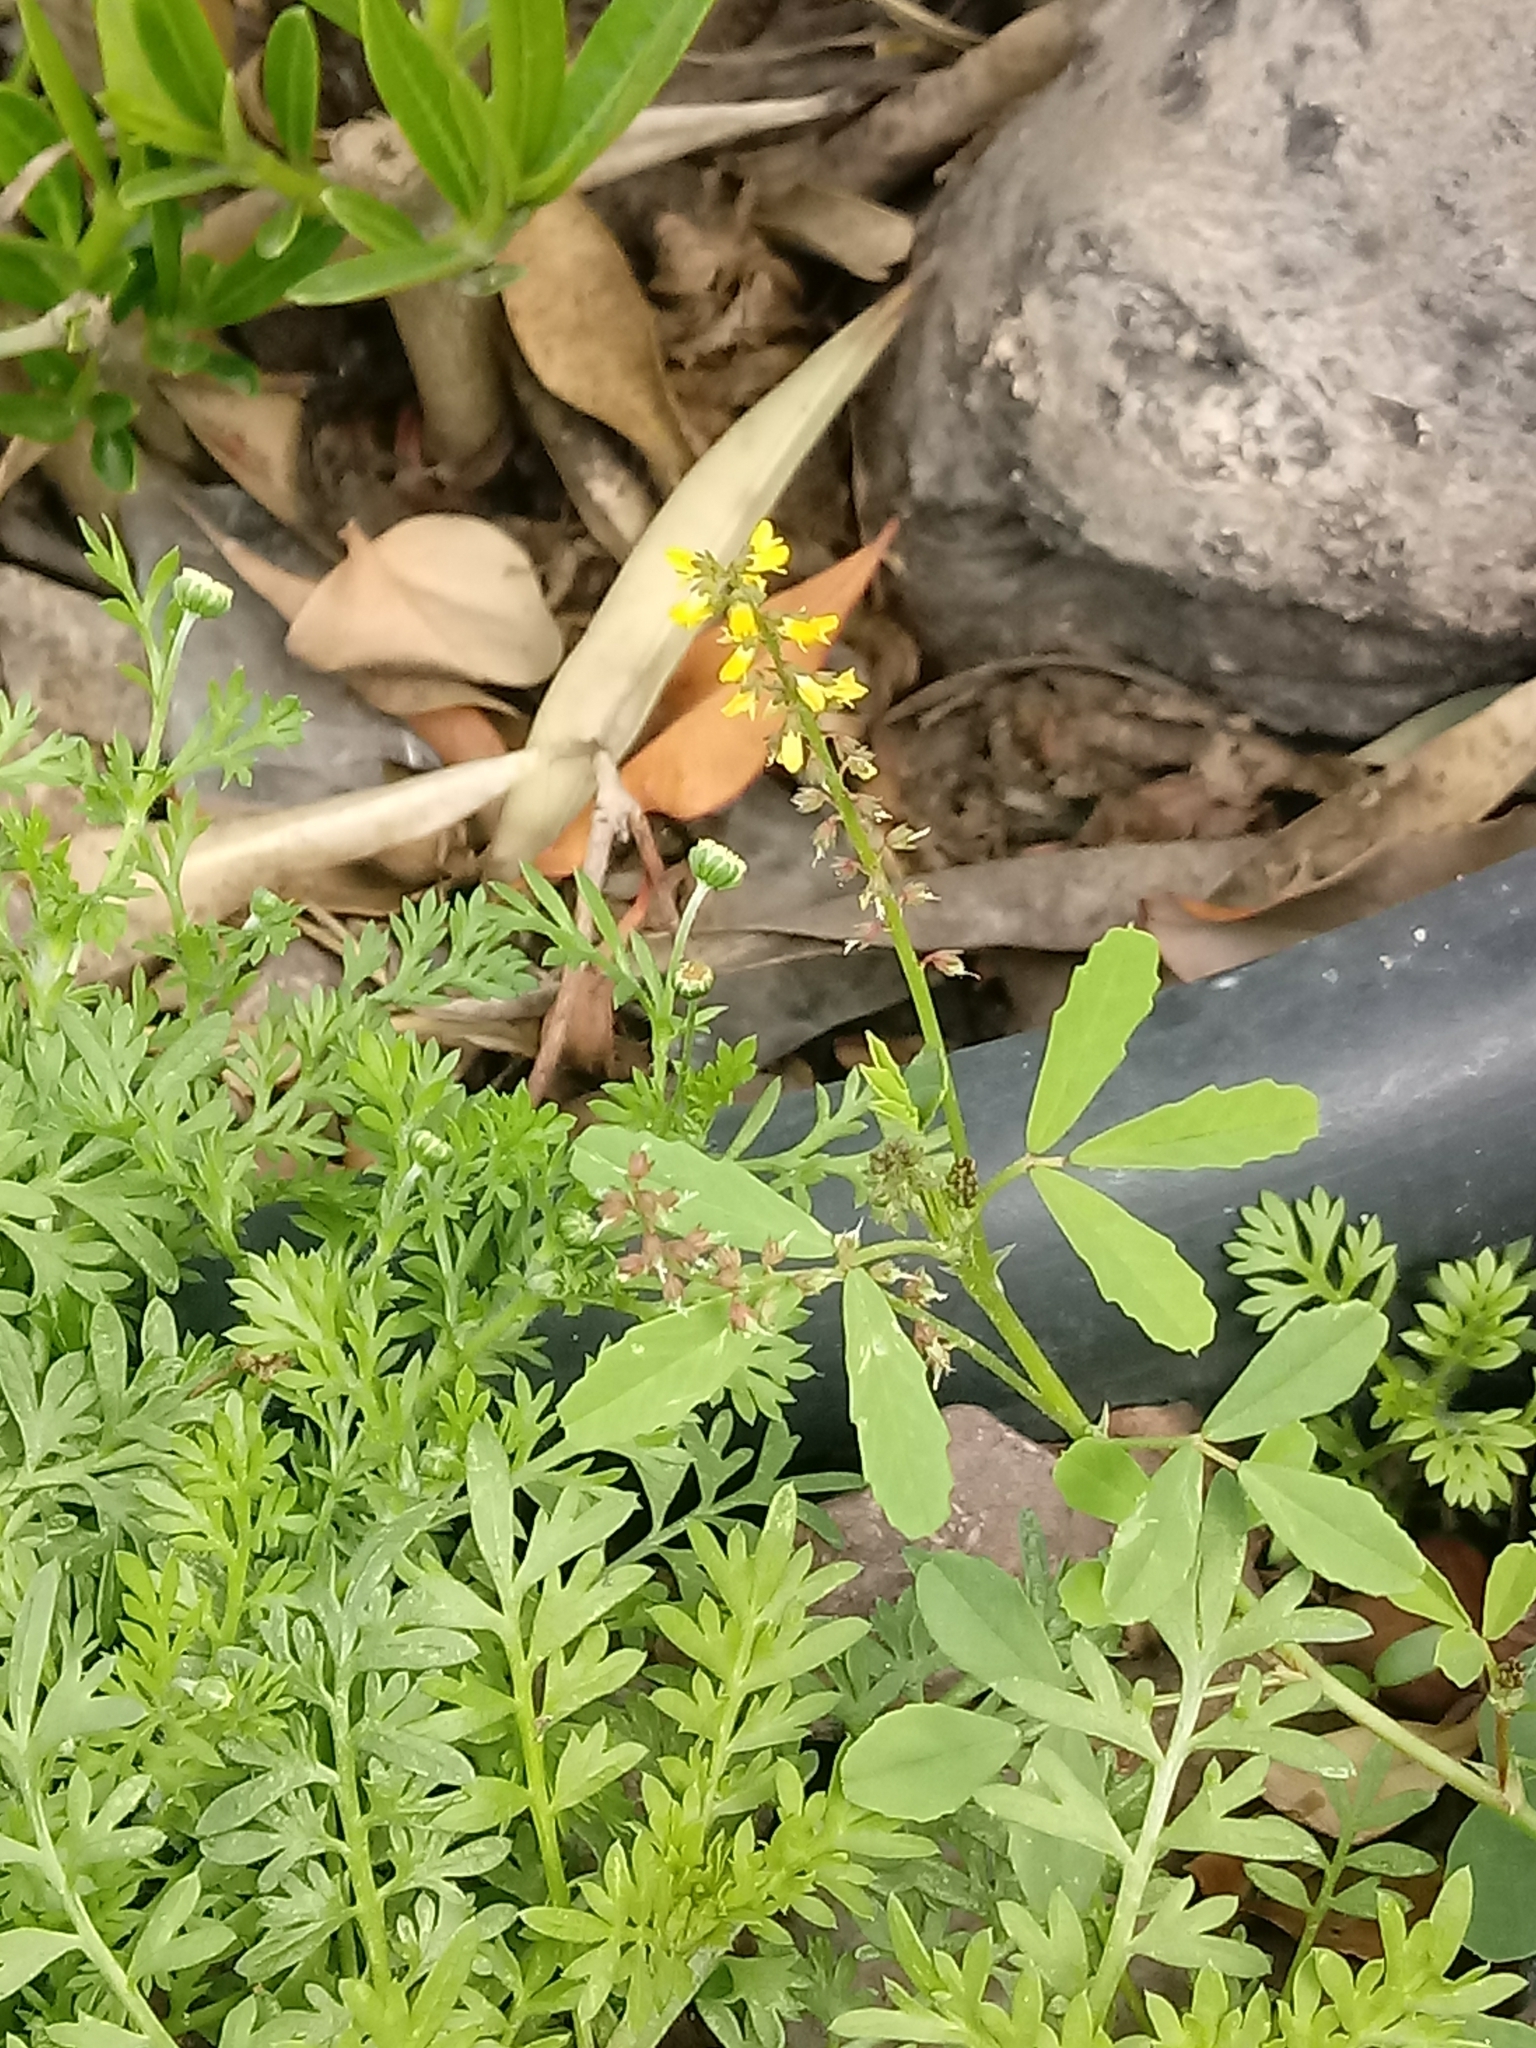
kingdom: Plantae
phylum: Tracheophyta
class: Magnoliopsida
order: Fabales
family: Fabaceae
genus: Melilotus
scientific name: Melilotus indicus
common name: Small melilot
